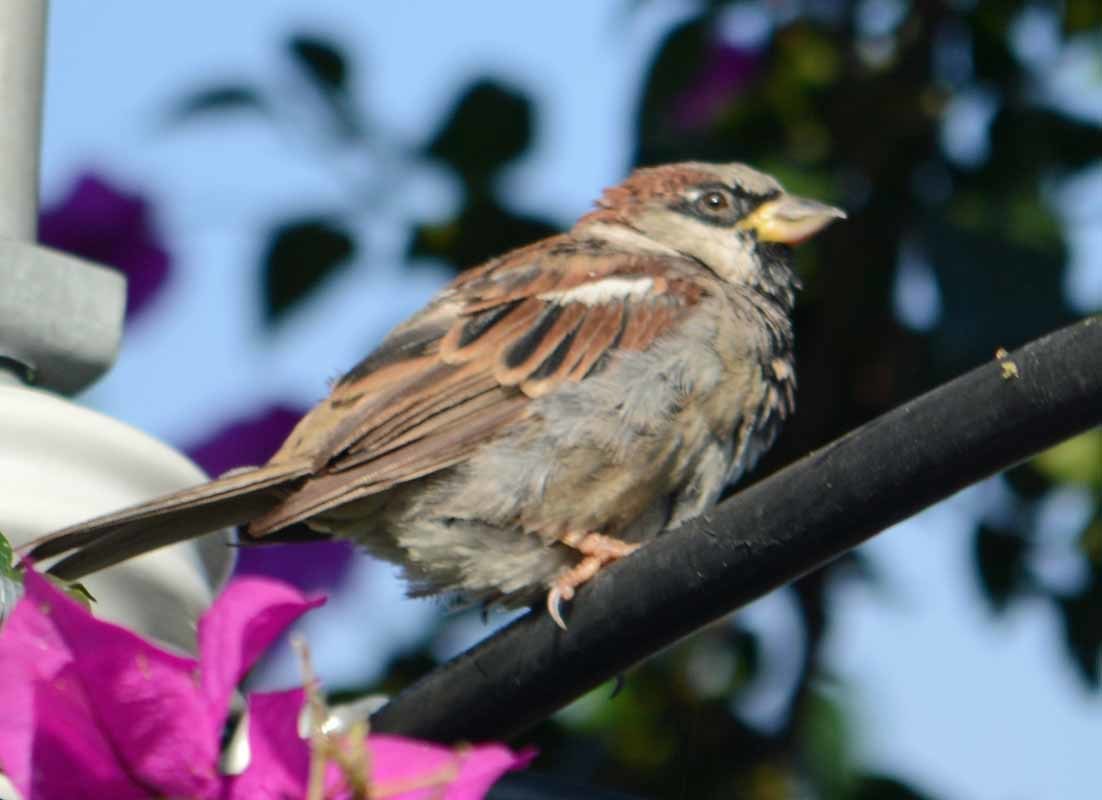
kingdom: Animalia
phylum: Chordata
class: Aves
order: Passeriformes
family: Passeridae
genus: Passer
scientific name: Passer domesticus
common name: House sparrow
